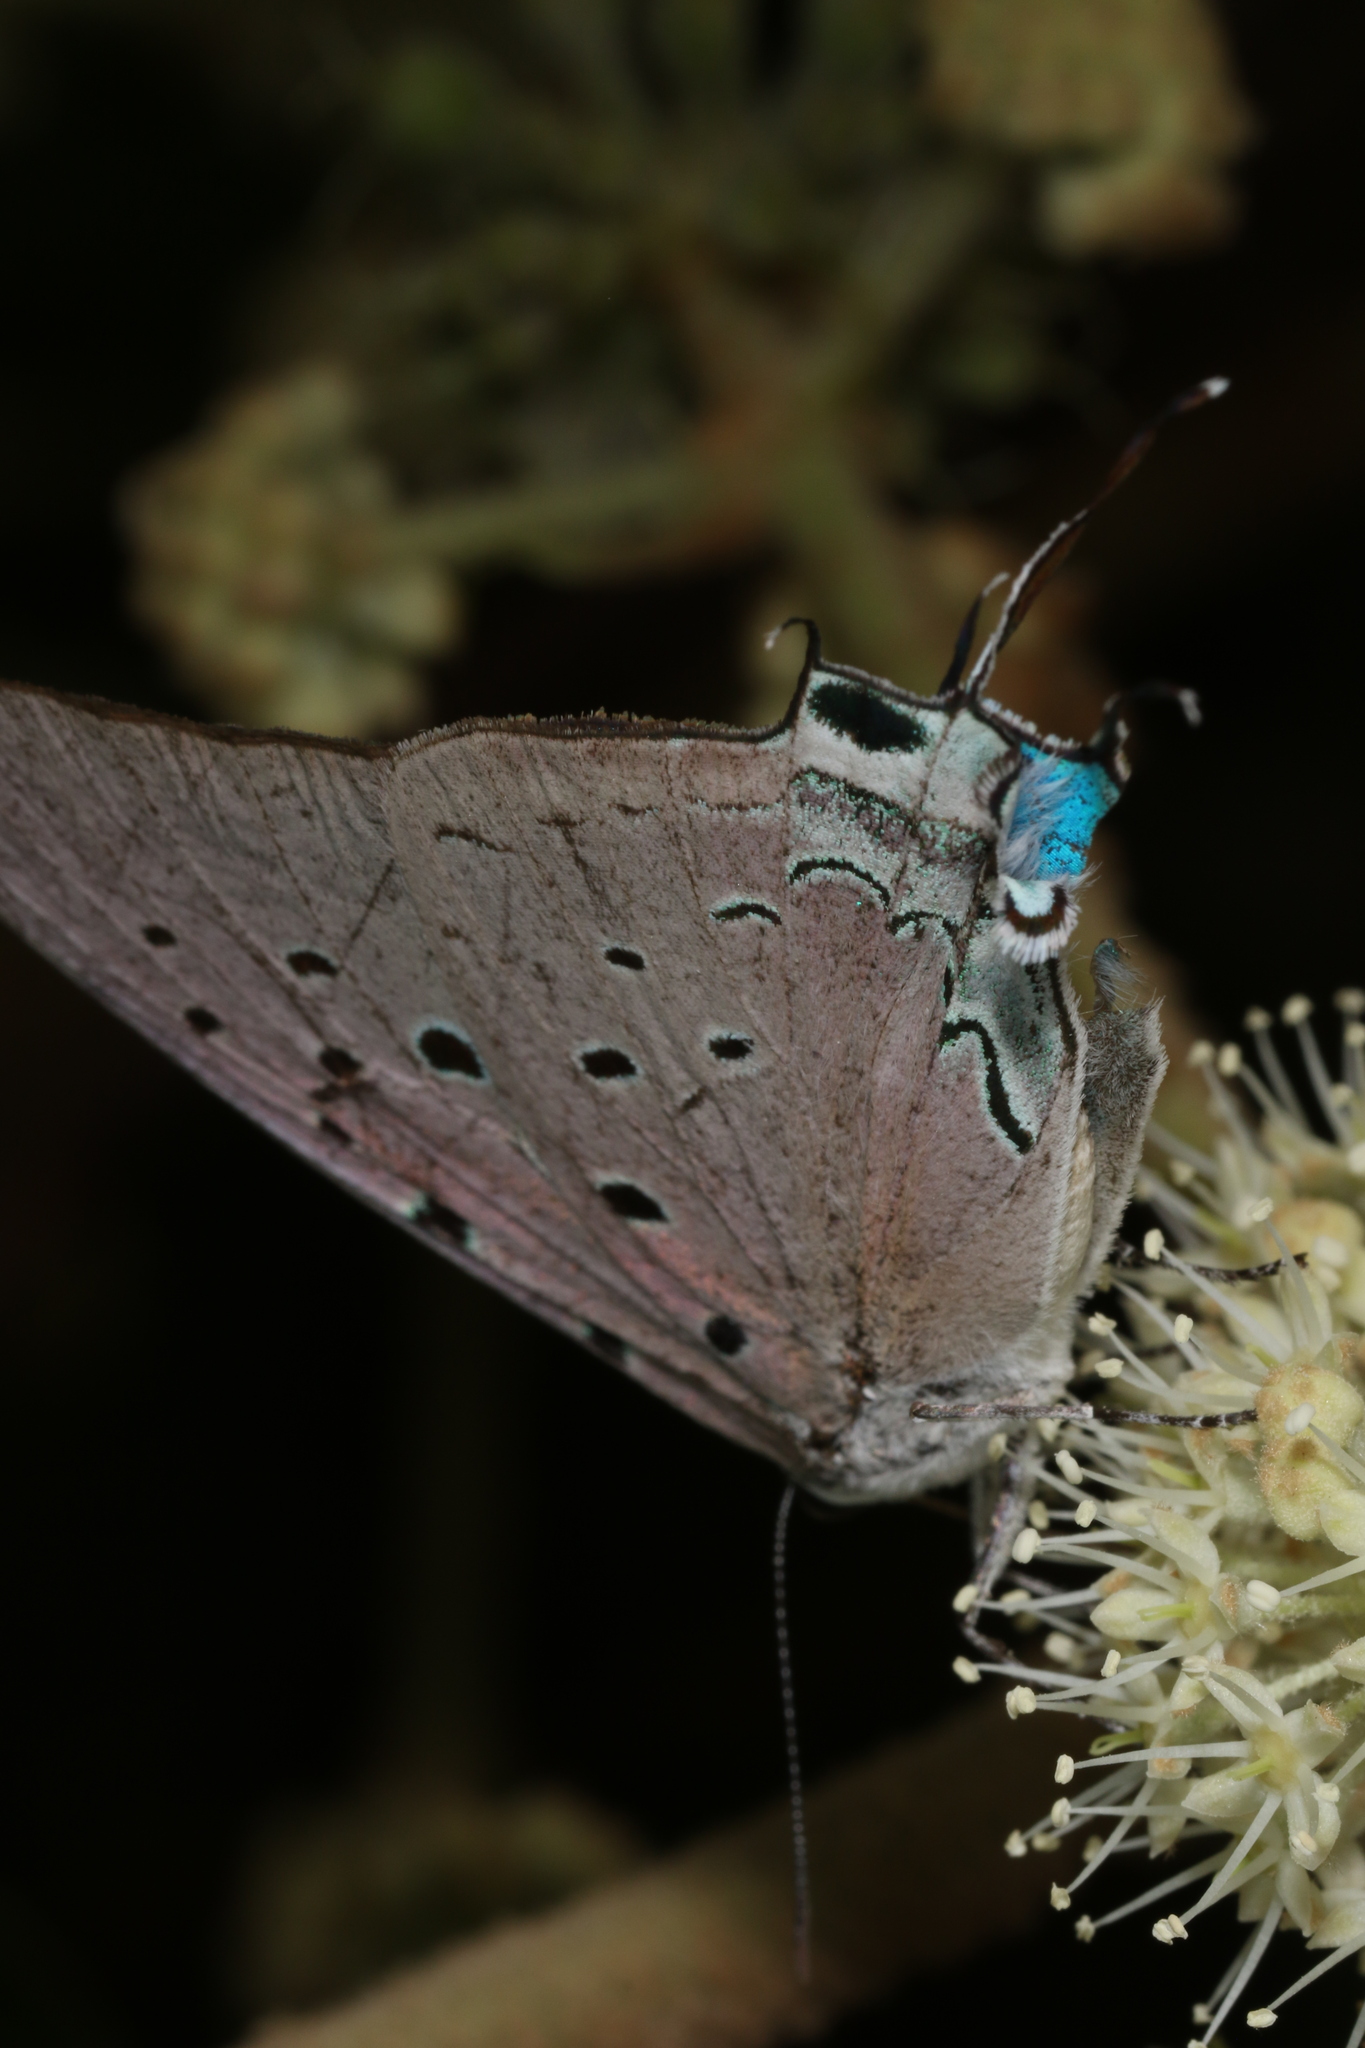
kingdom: Animalia
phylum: Arthropoda
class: Insecta
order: Lepidoptera
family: Lycaenidae
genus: Pseudolycaena
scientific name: Pseudolycaena marsyas
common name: Marsyas hairstreak
